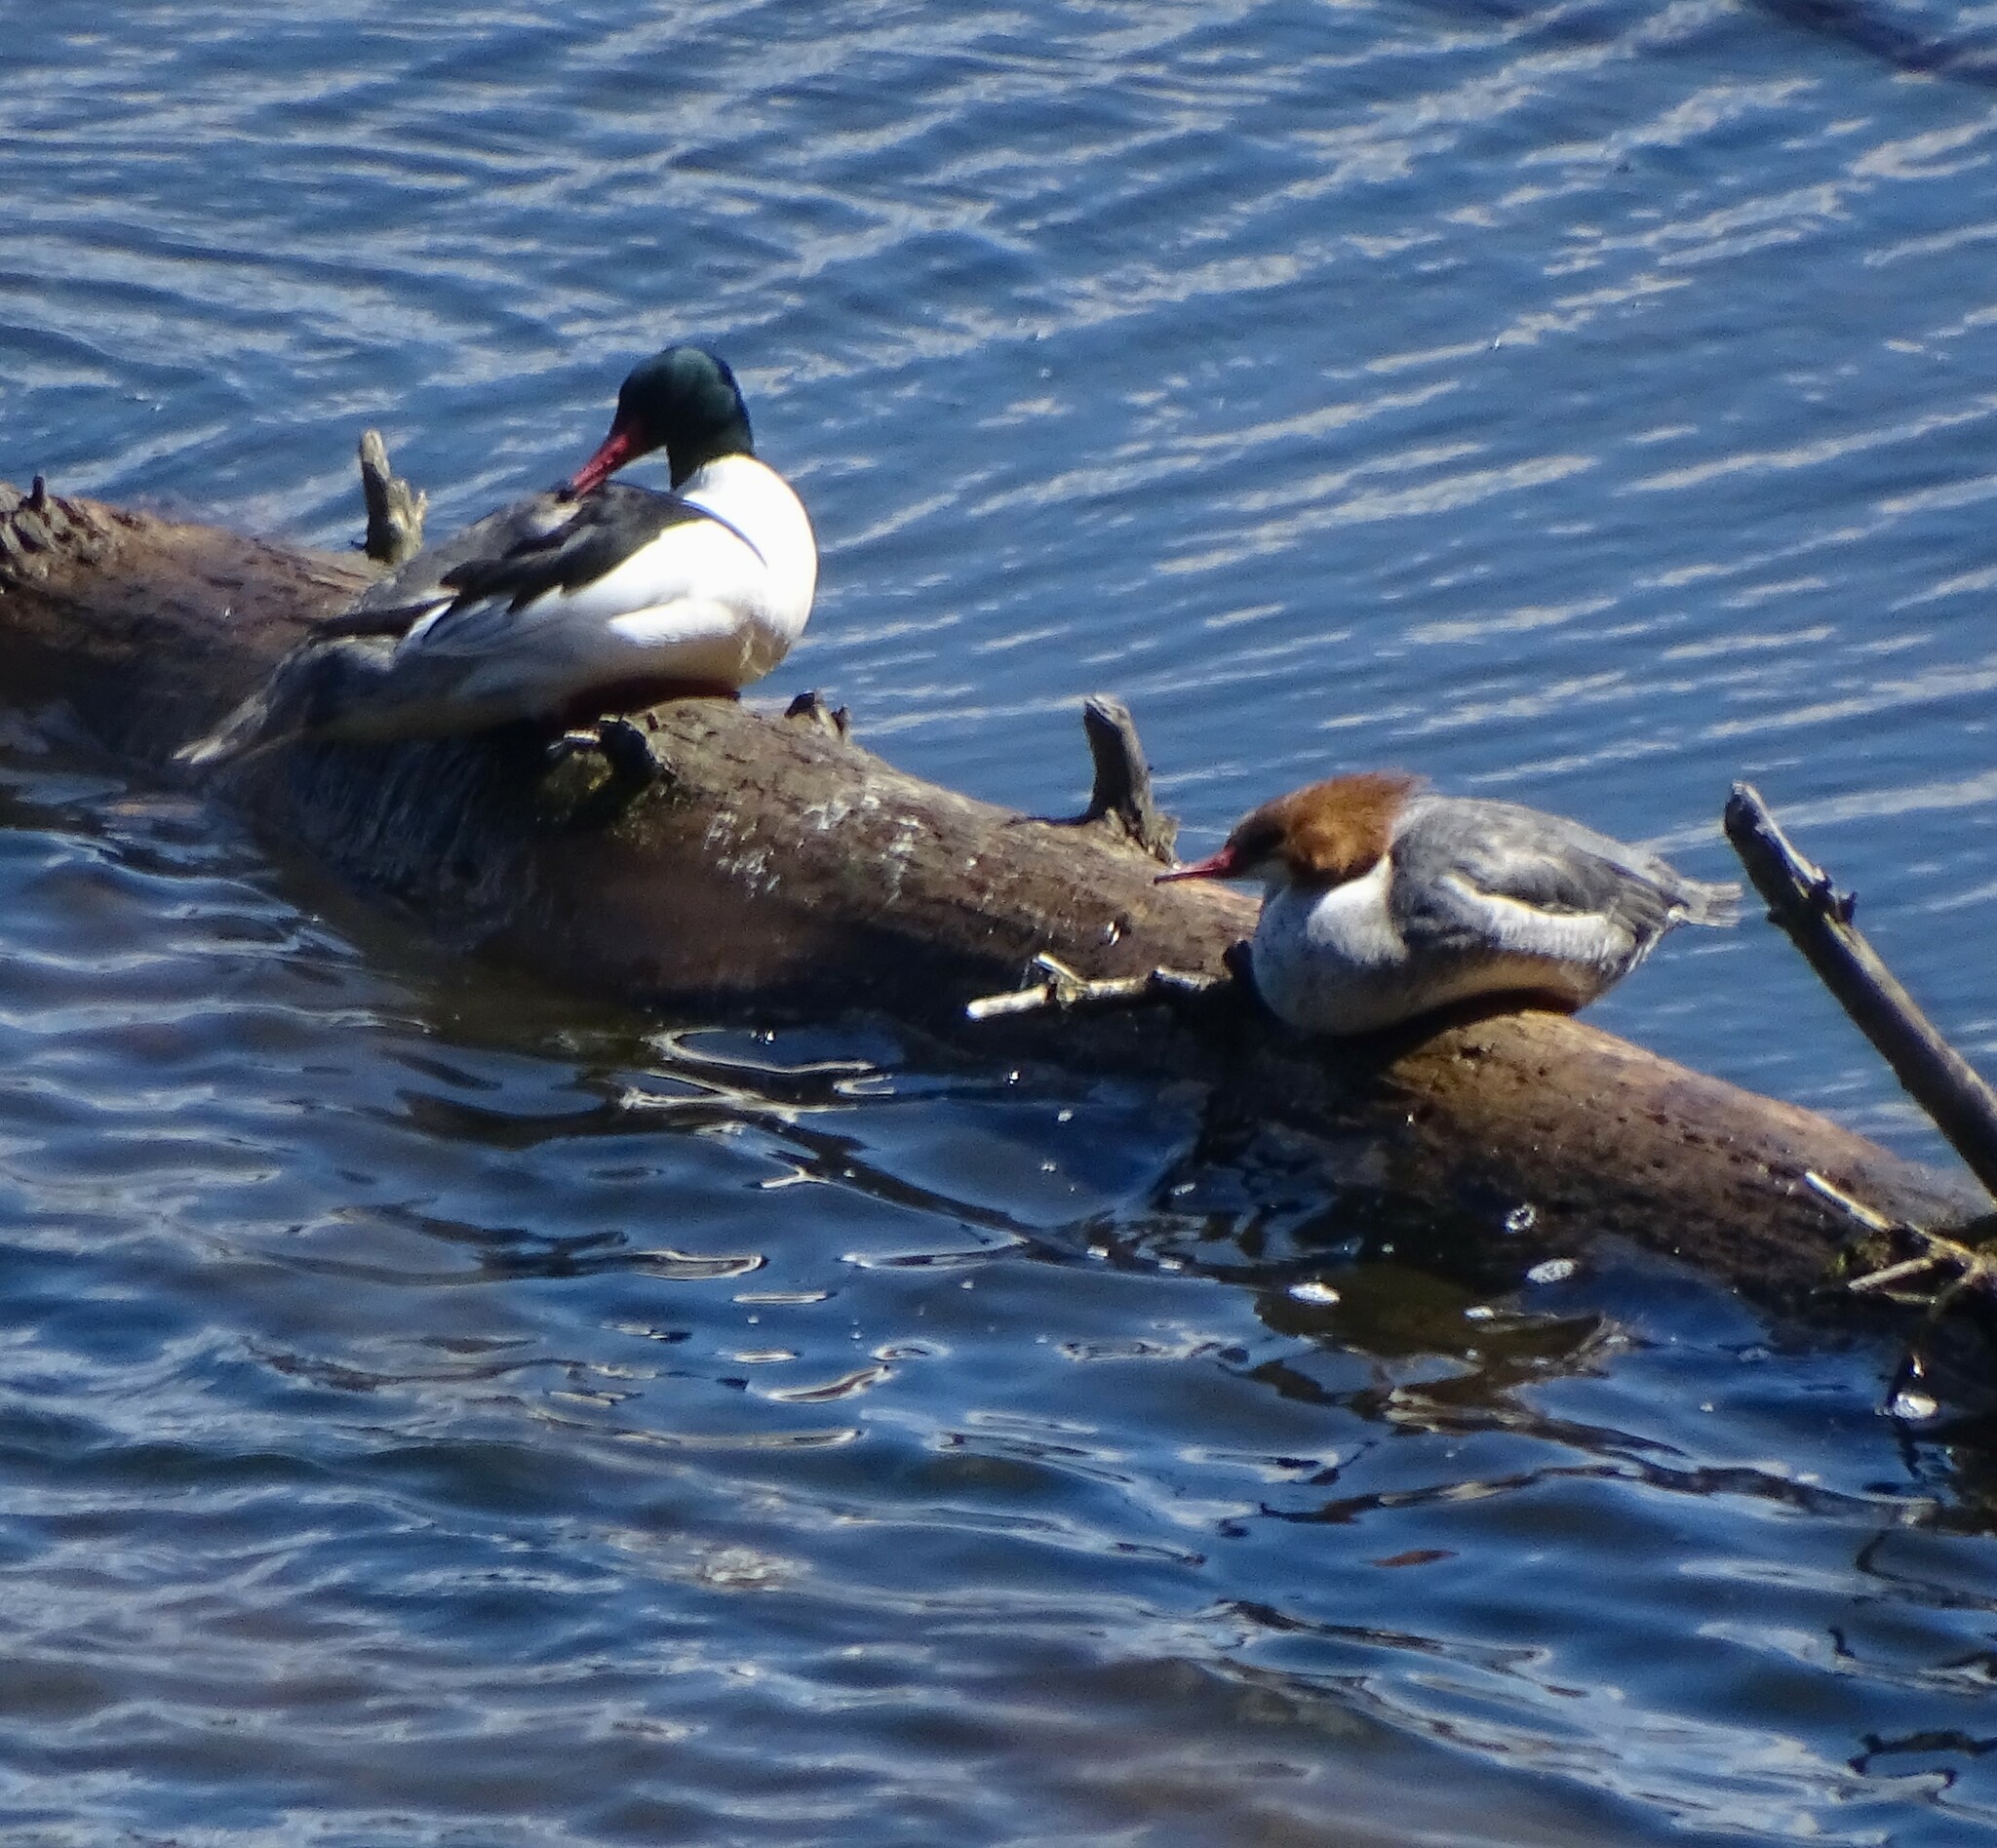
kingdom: Animalia
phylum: Chordata
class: Aves
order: Anseriformes
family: Anatidae
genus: Mergus
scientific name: Mergus merganser
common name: Common merganser
